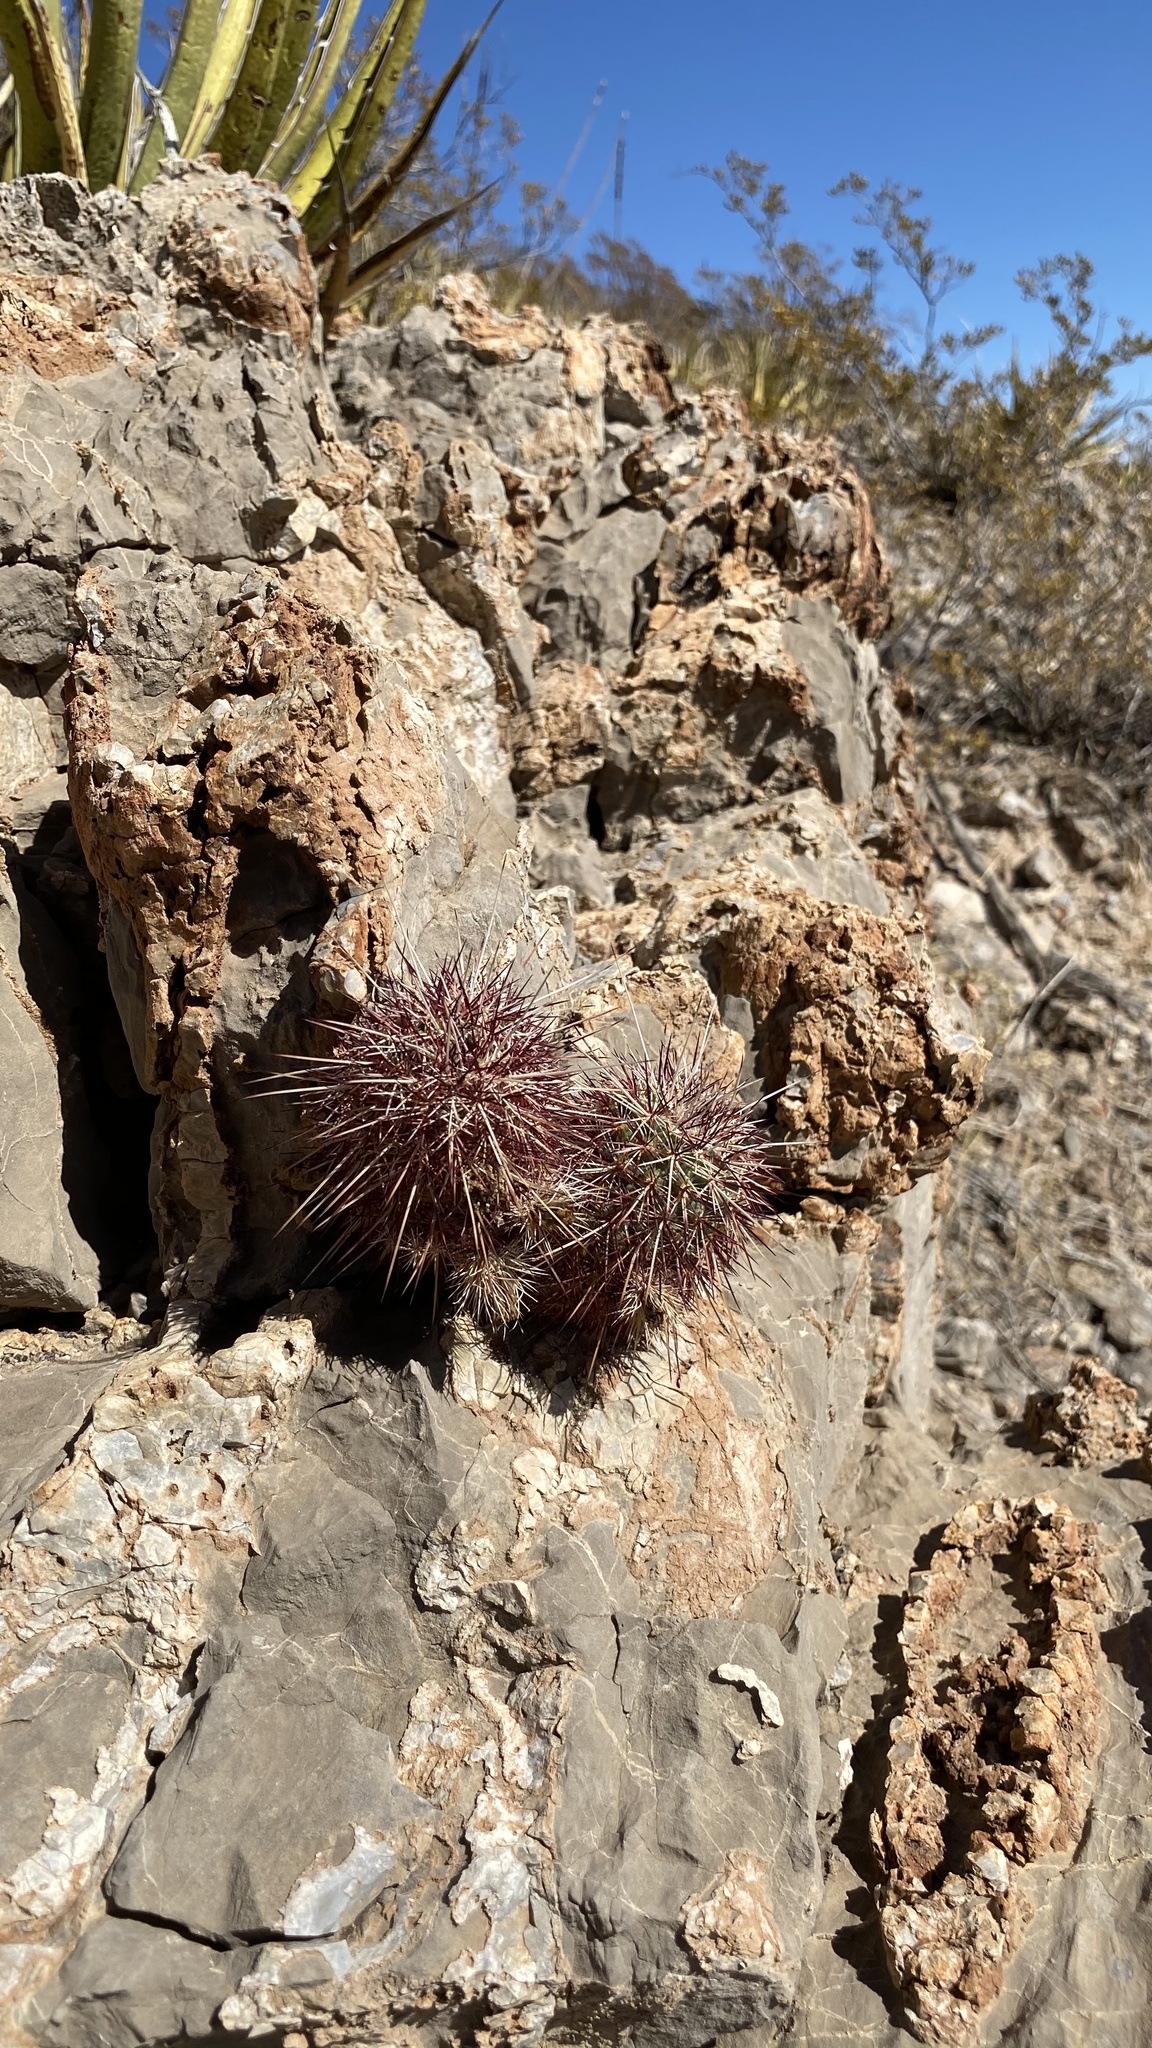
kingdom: Plantae
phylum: Tracheophyta
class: Magnoliopsida
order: Caryophyllales
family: Cactaceae
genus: Echinocereus
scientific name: Echinocereus viridiflorus
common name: Nylon hedgehog cactus
